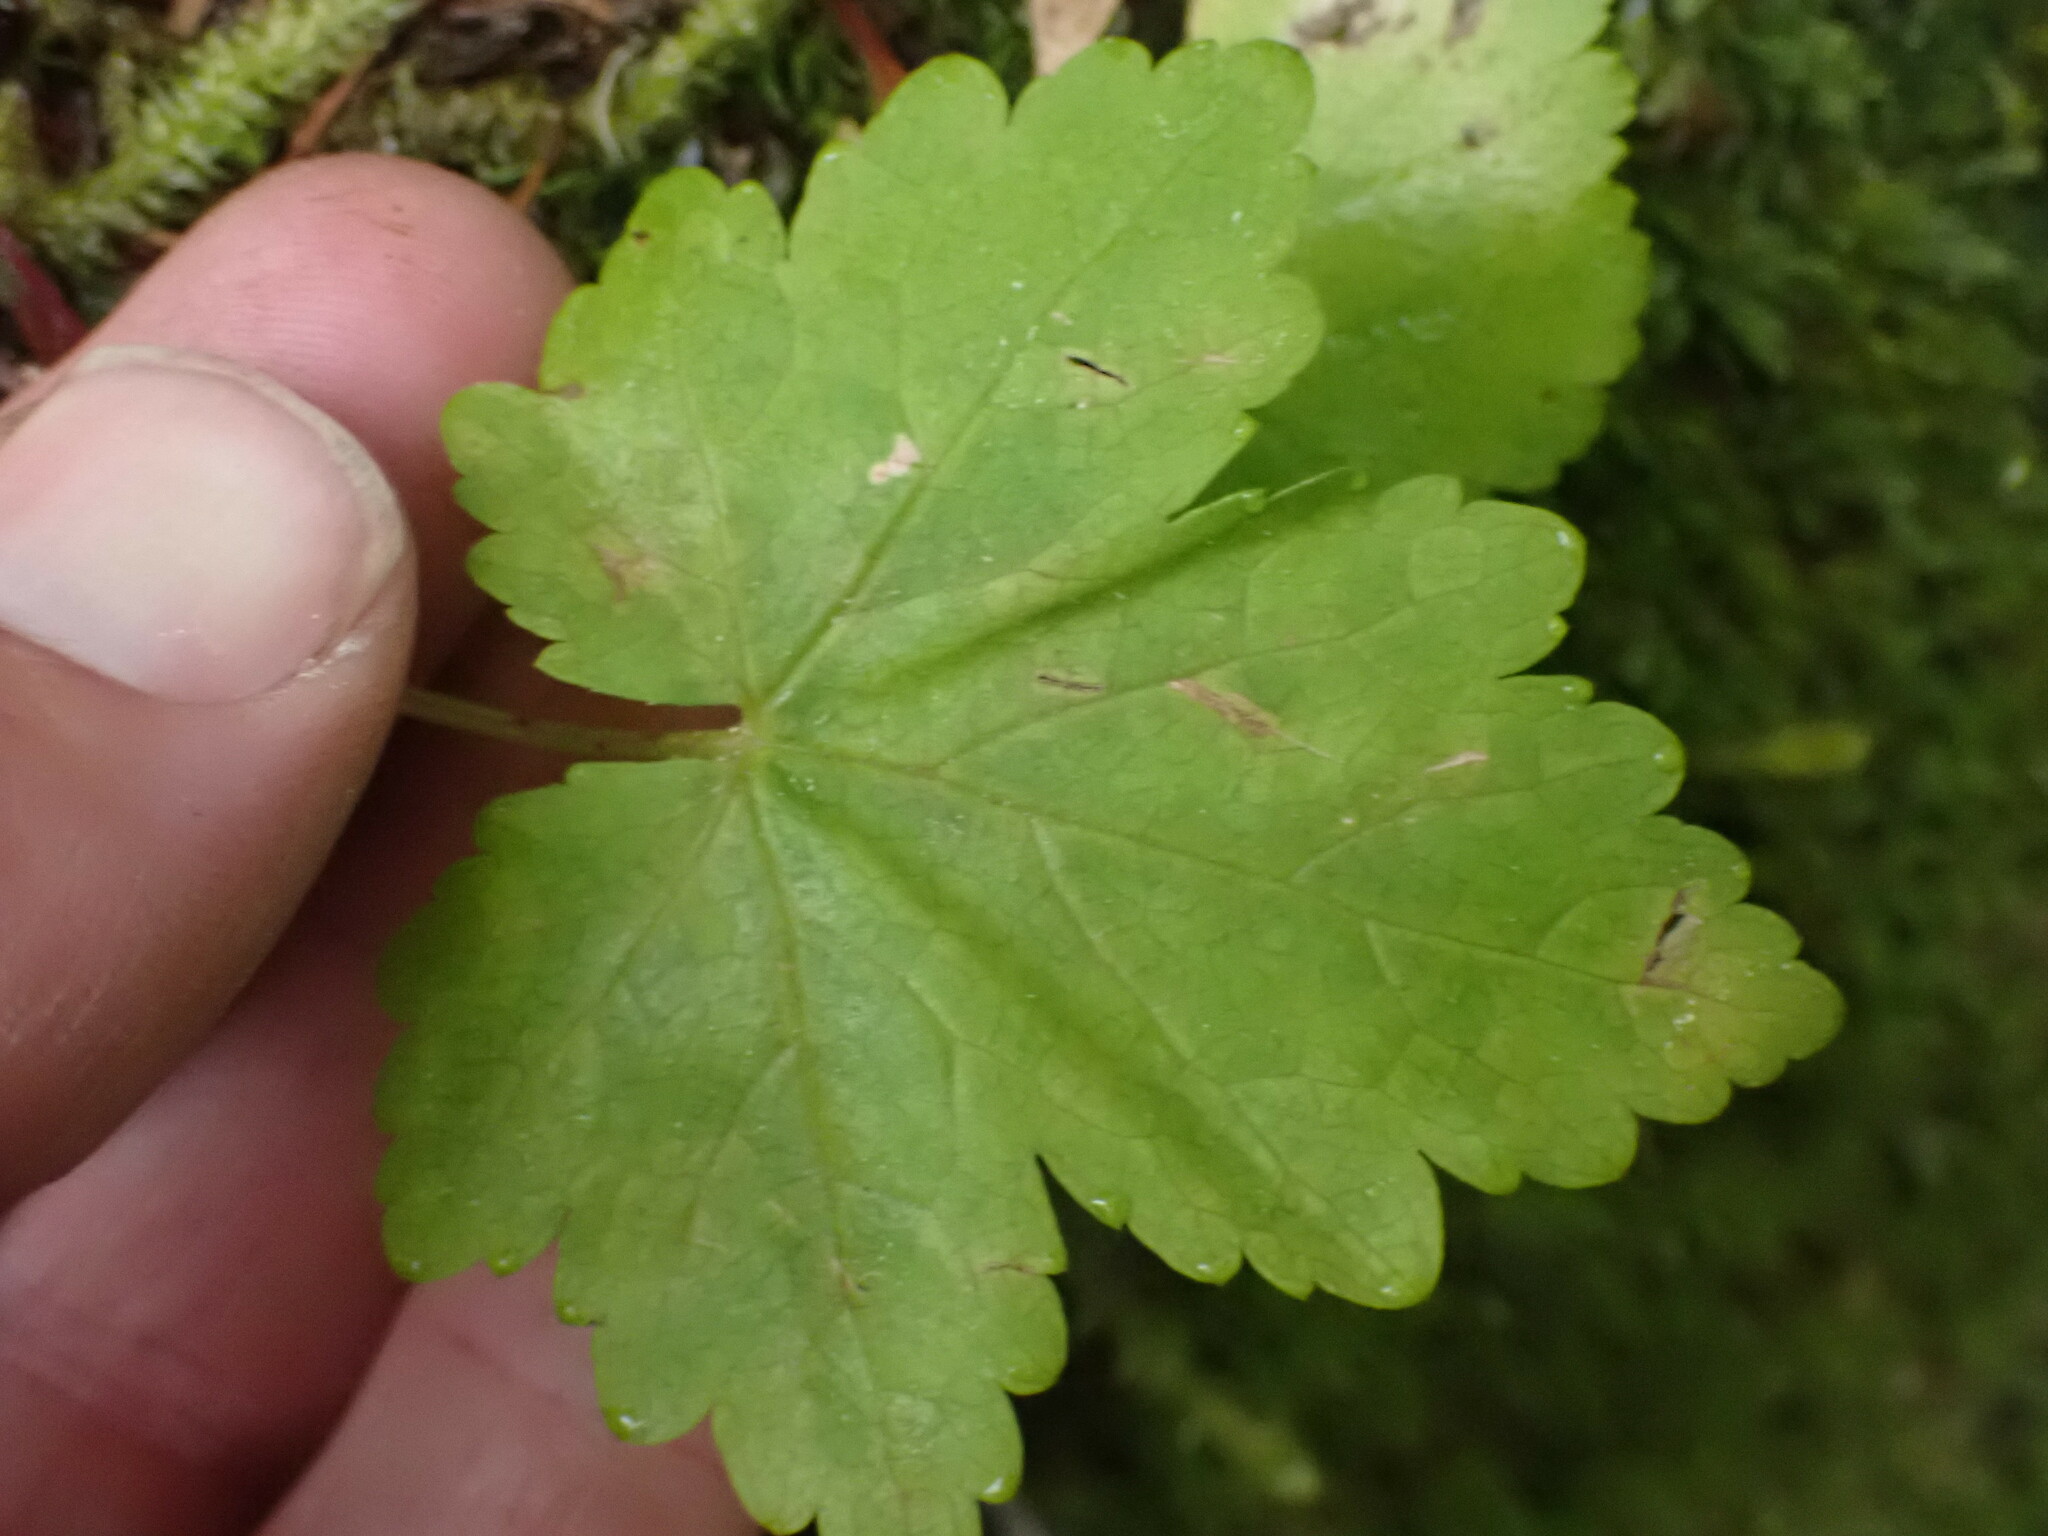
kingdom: Plantae
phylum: Tracheophyta
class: Magnoliopsida
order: Saxifragales
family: Saxifragaceae
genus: Tiarella
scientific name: Tiarella trifoliata
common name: Sugar-scoop
